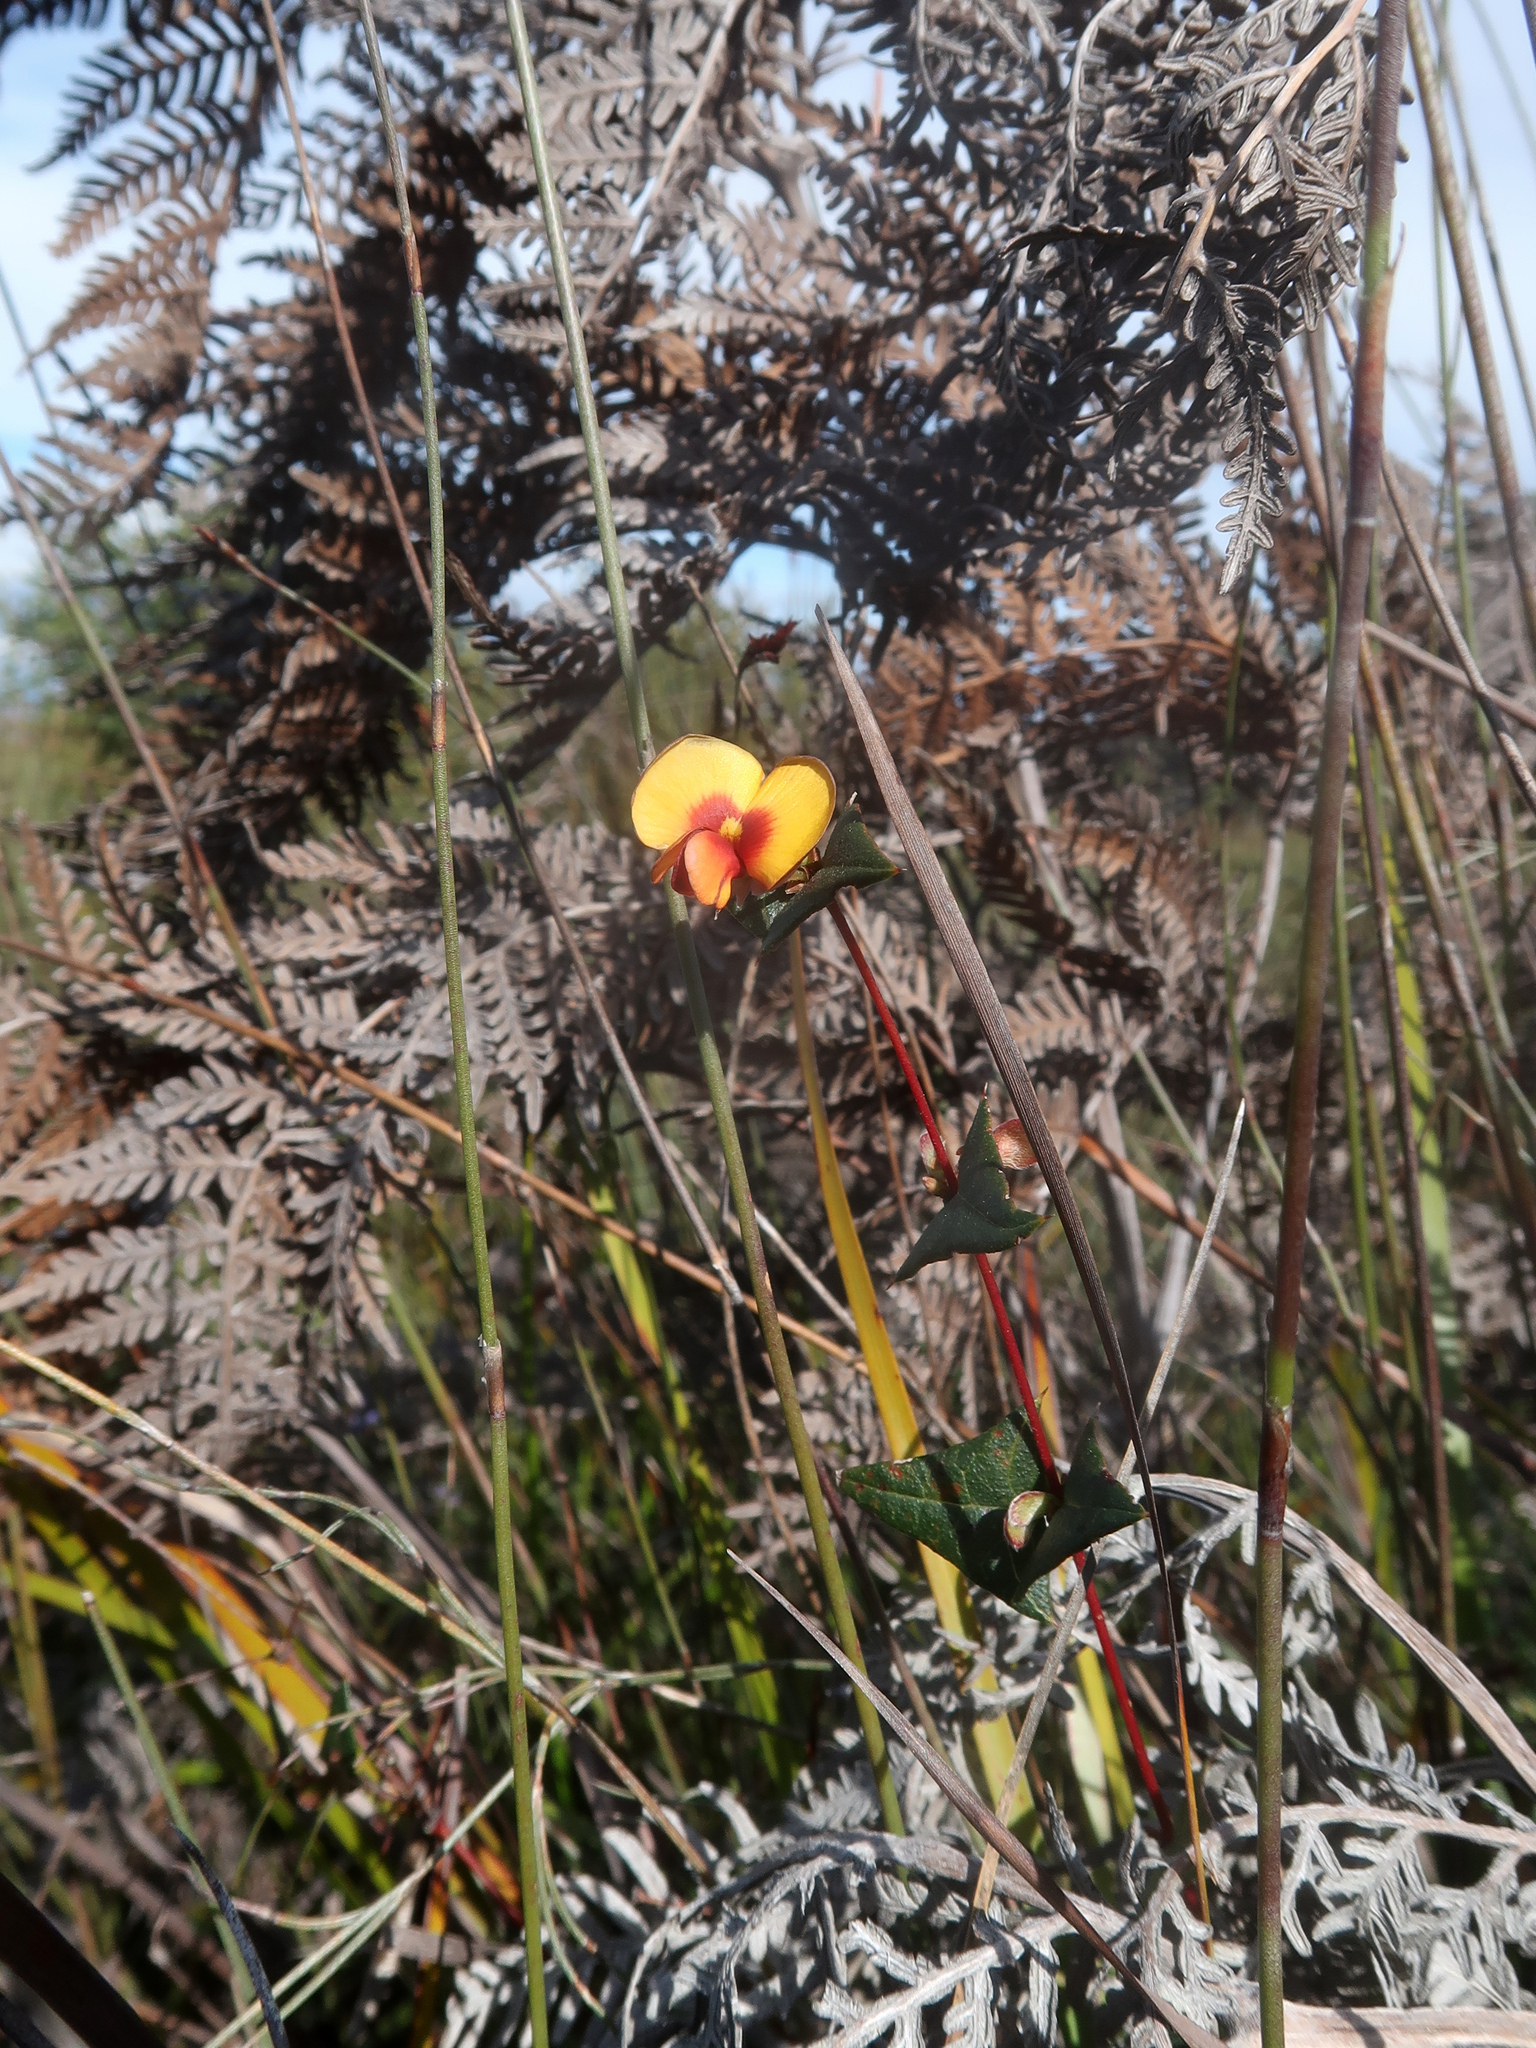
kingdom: Plantae
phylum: Tracheophyta
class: Magnoliopsida
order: Fabales
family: Fabaceae
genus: Platylobium
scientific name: Platylobium triangulare
